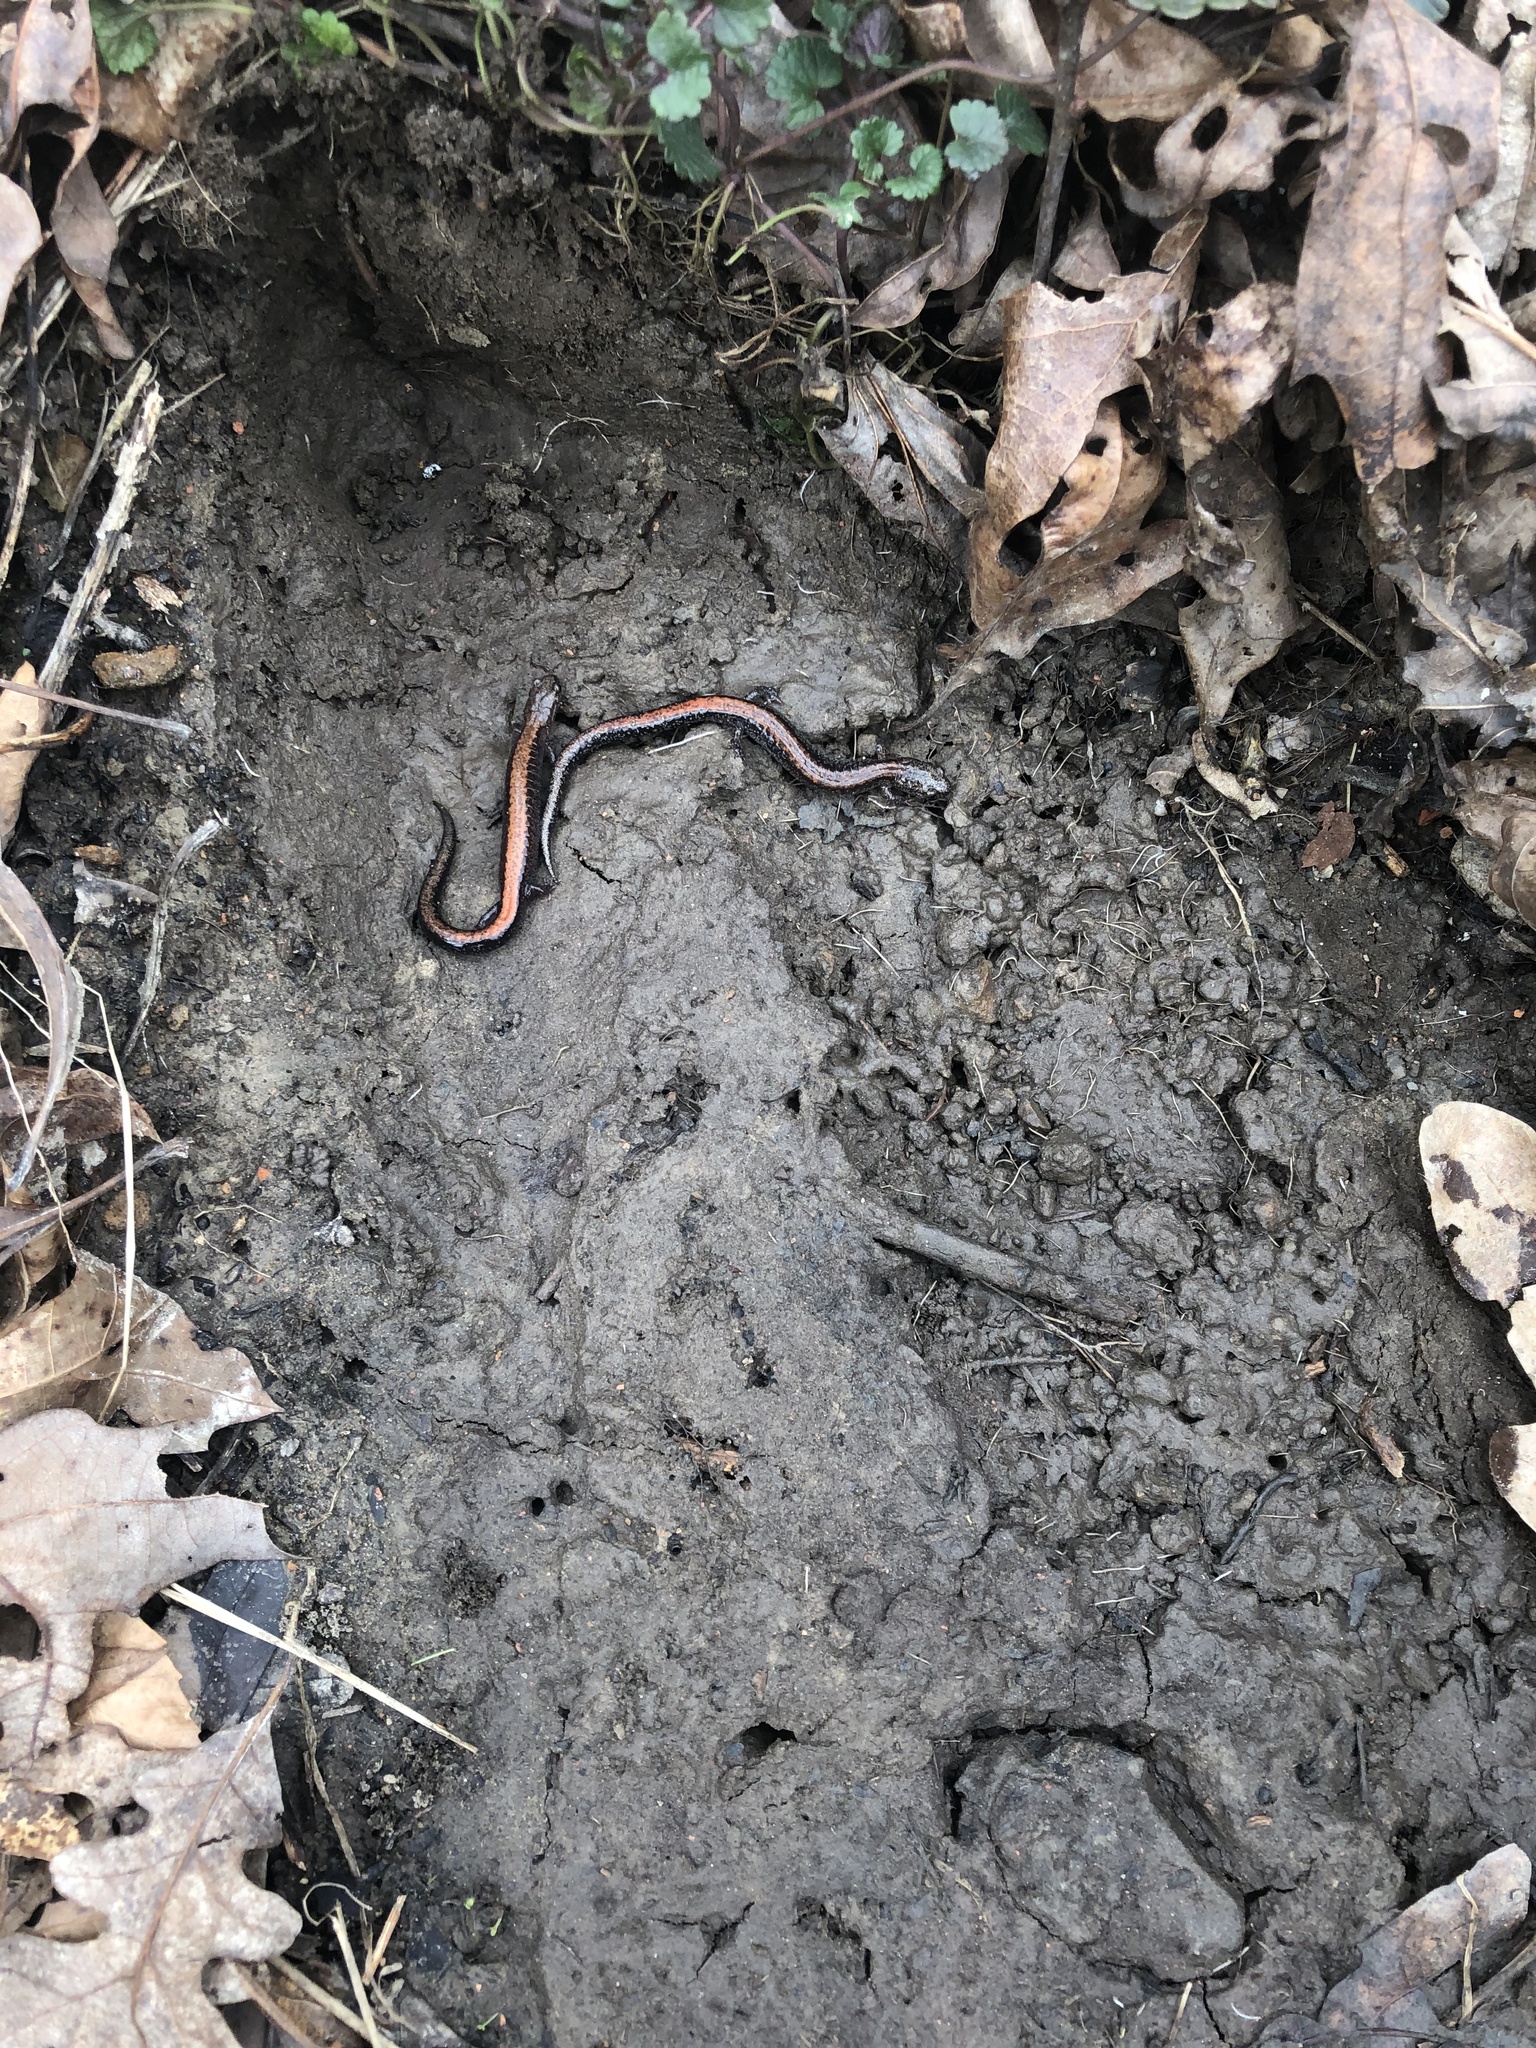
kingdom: Animalia
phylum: Chordata
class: Amphibia
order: Caudata
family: Plethodontidae
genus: Plethodon
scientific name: Plethodon cinereus
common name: Redback salamander
